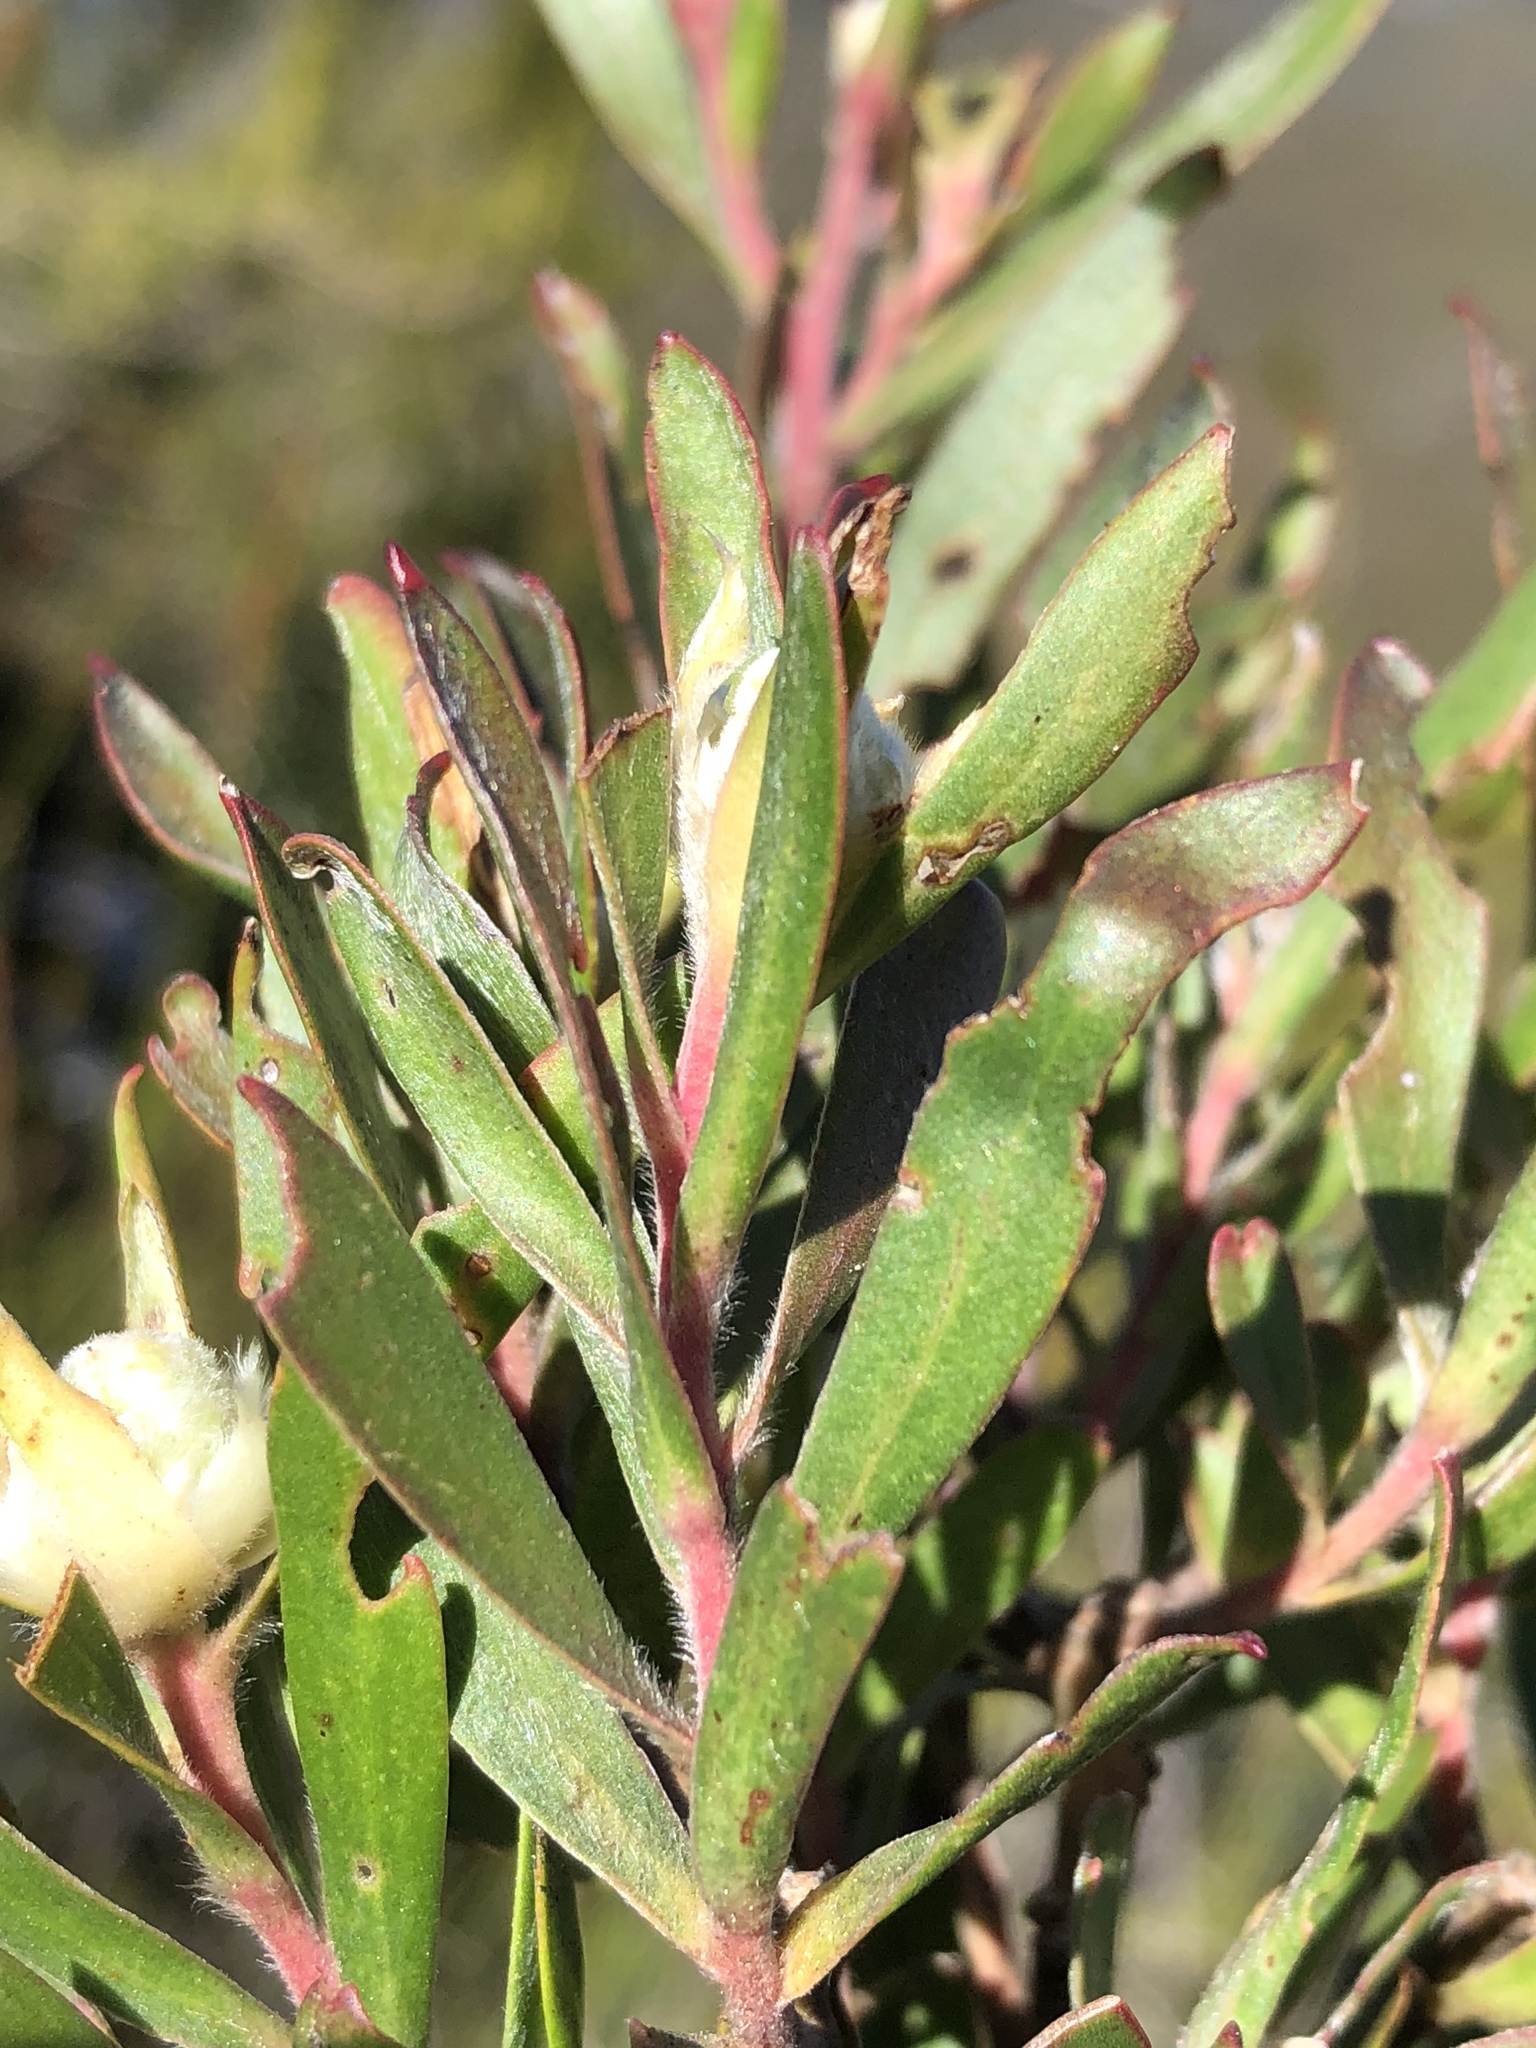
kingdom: Plantae
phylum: Tracheophyta
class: Magnoliopsida
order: Proteales
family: Proteaceae
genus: Leucadendron
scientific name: Leucadendron
